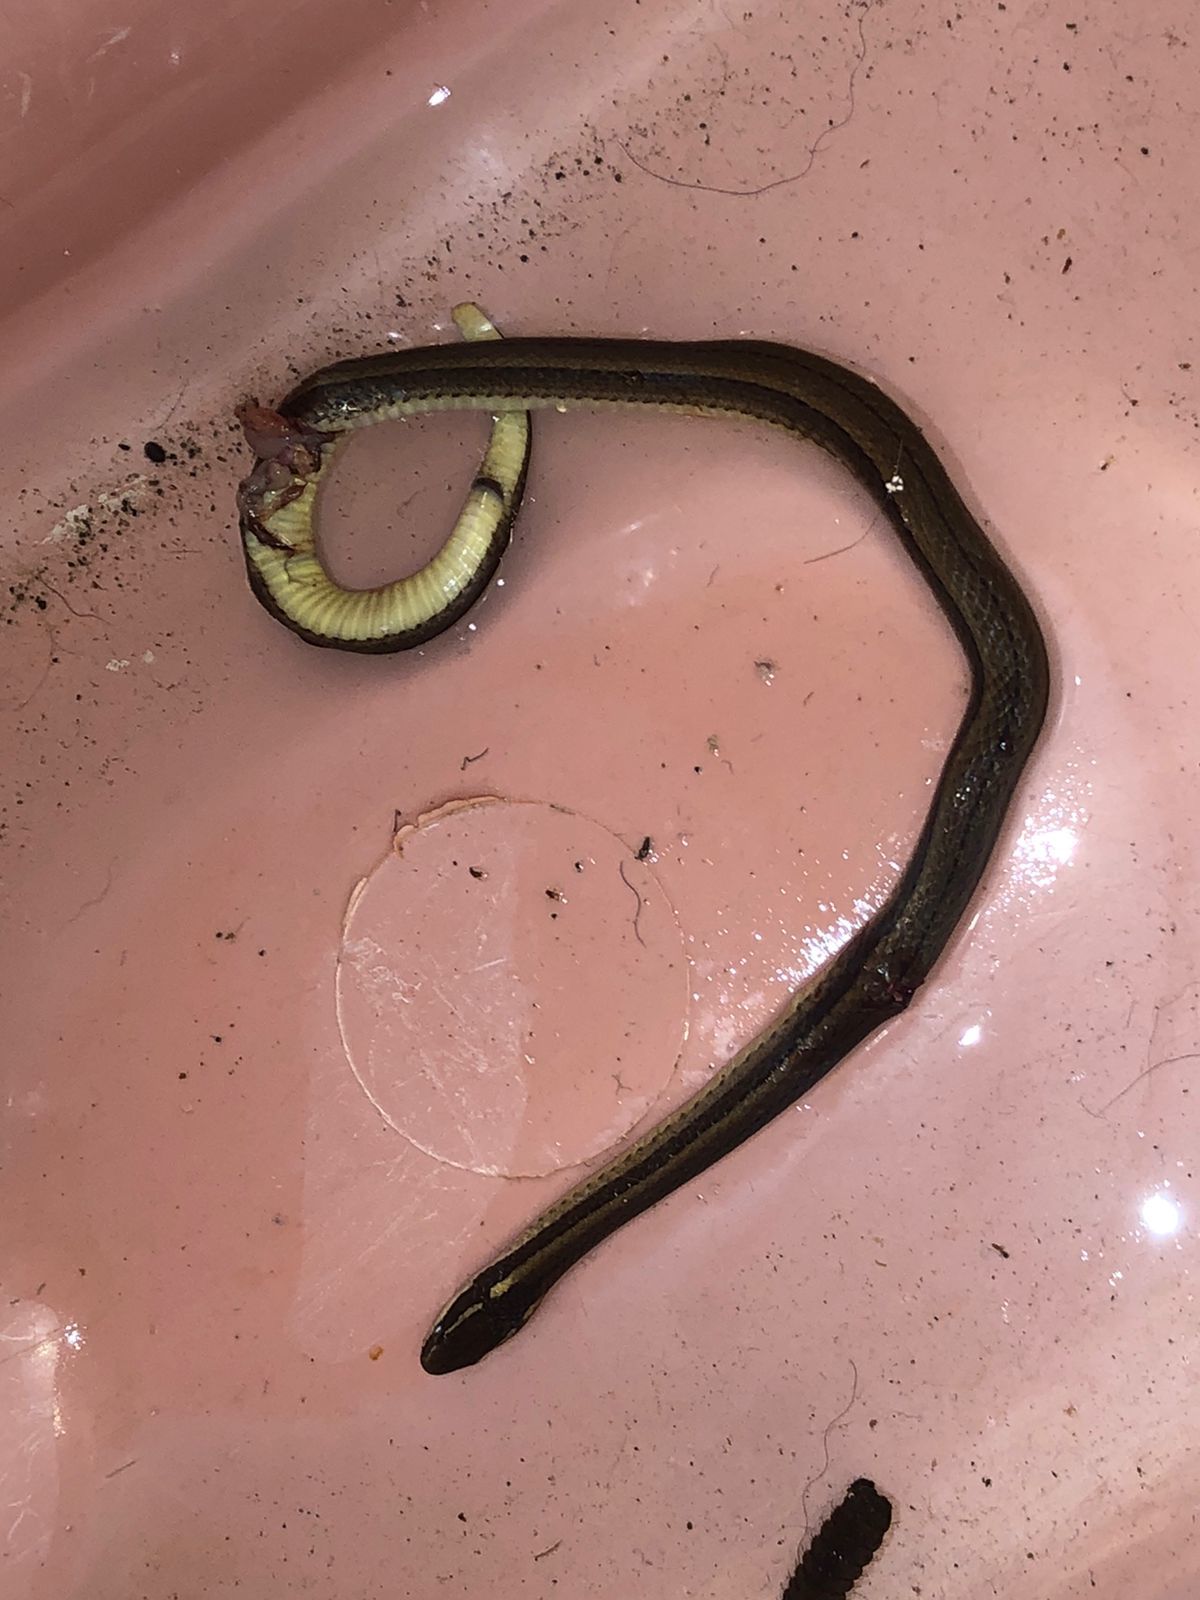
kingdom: Animalia
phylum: Chordata
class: Squamata
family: Colubridae
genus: Coniophanes
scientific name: Coniophanes imperialis
